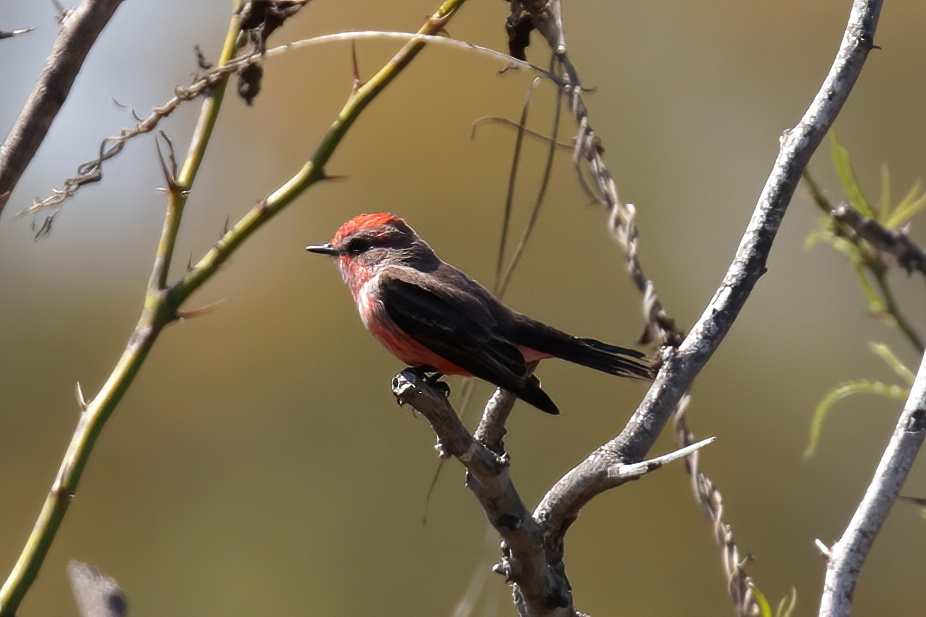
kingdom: Animalia
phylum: Chordata
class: Aves
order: Passeriformes
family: Tyrannidae
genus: Pyrocephalus
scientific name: Pyrocephalus rubinus
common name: Vermilion flycatcher
